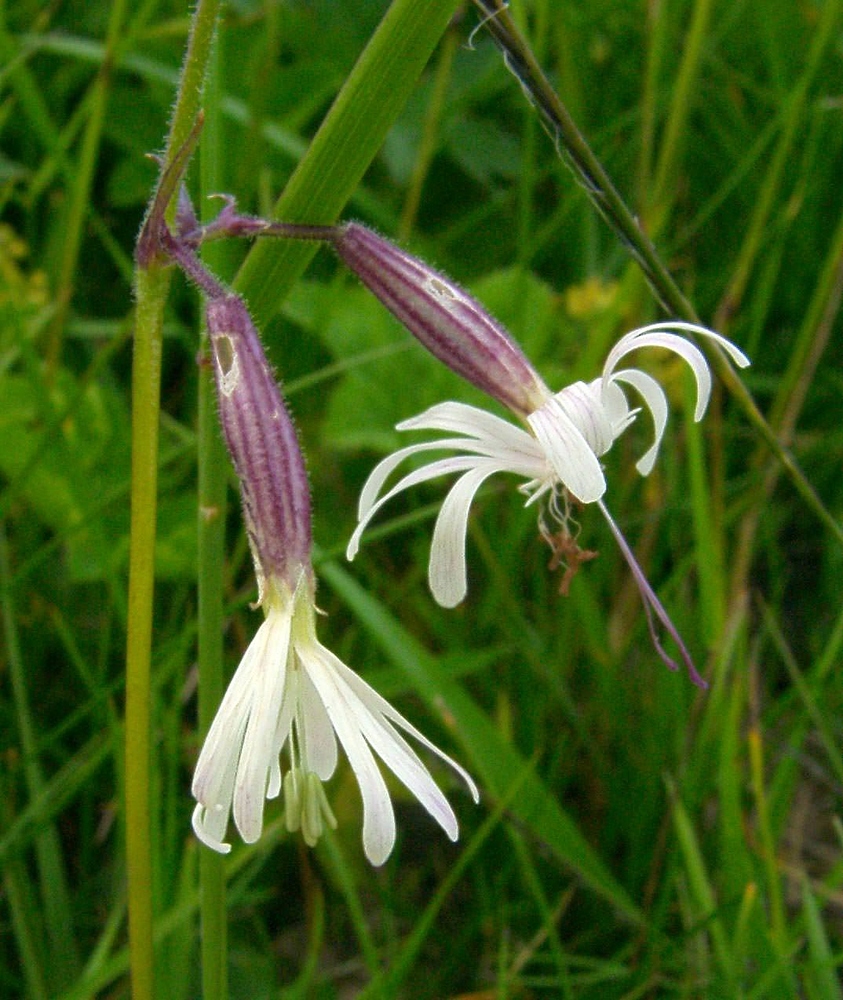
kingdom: Plantae
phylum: Tracheophyta
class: Magnoliopsida
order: Caryophyllales
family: Caryophyllaceae
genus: Silene
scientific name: Silene nutans
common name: Nottingham catchfly
